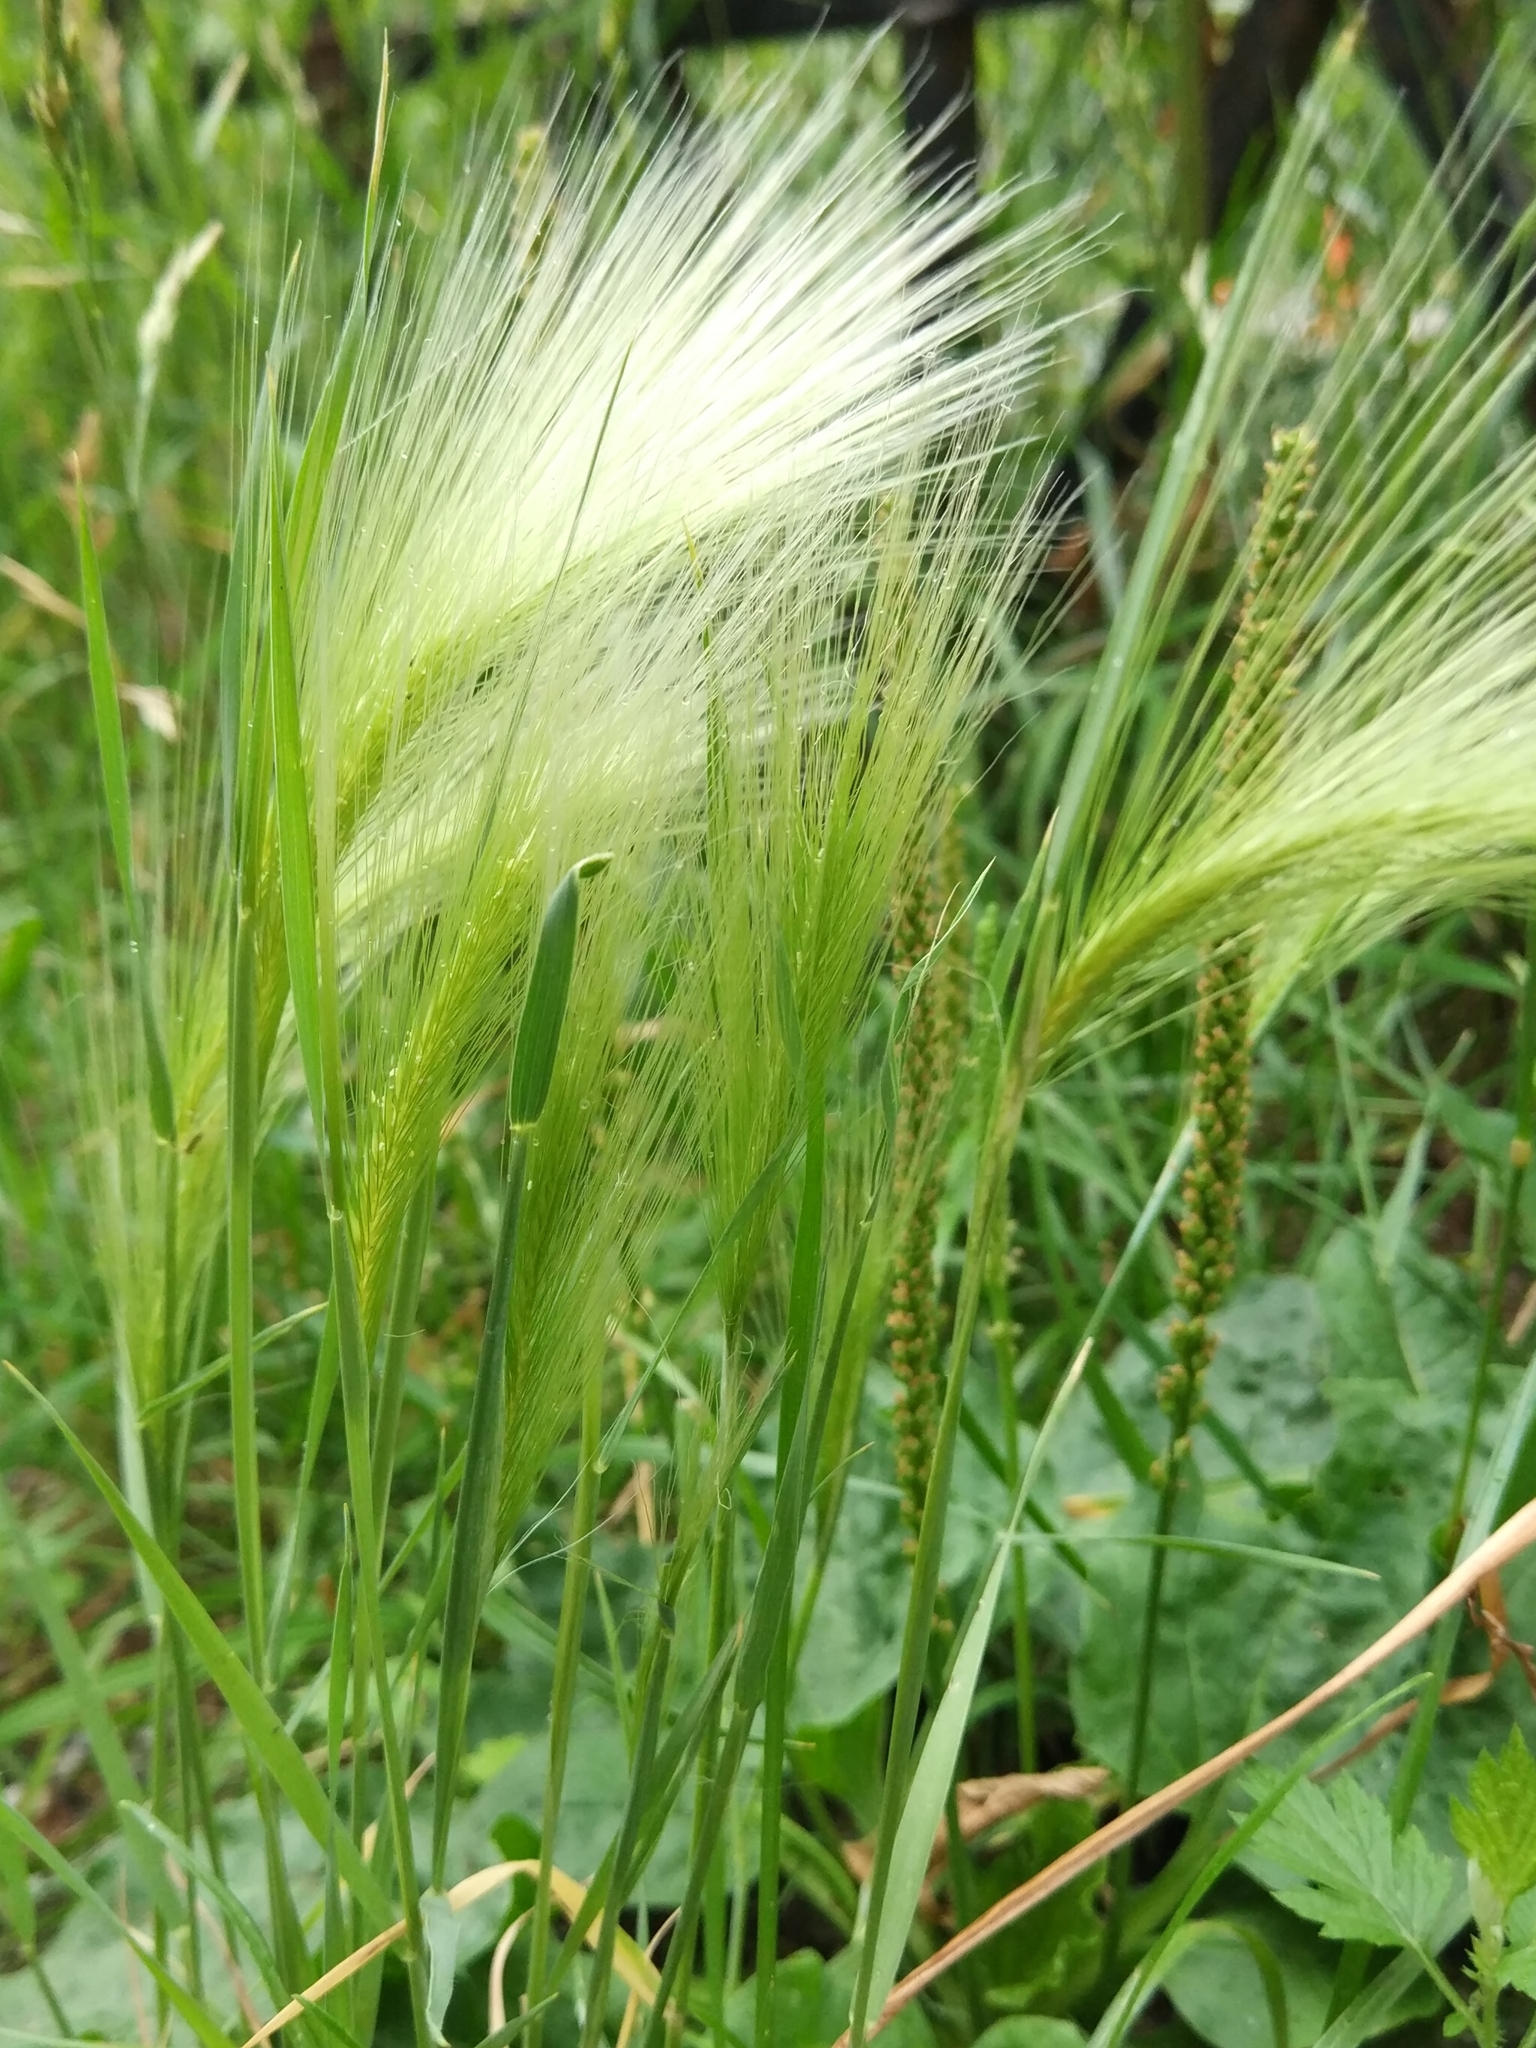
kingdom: Plantae
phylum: Tracheophyta
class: Liliopsida
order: Poales
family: Poaceae
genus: Hordeum
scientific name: Hordeum jubatum
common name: Foxtail barley
